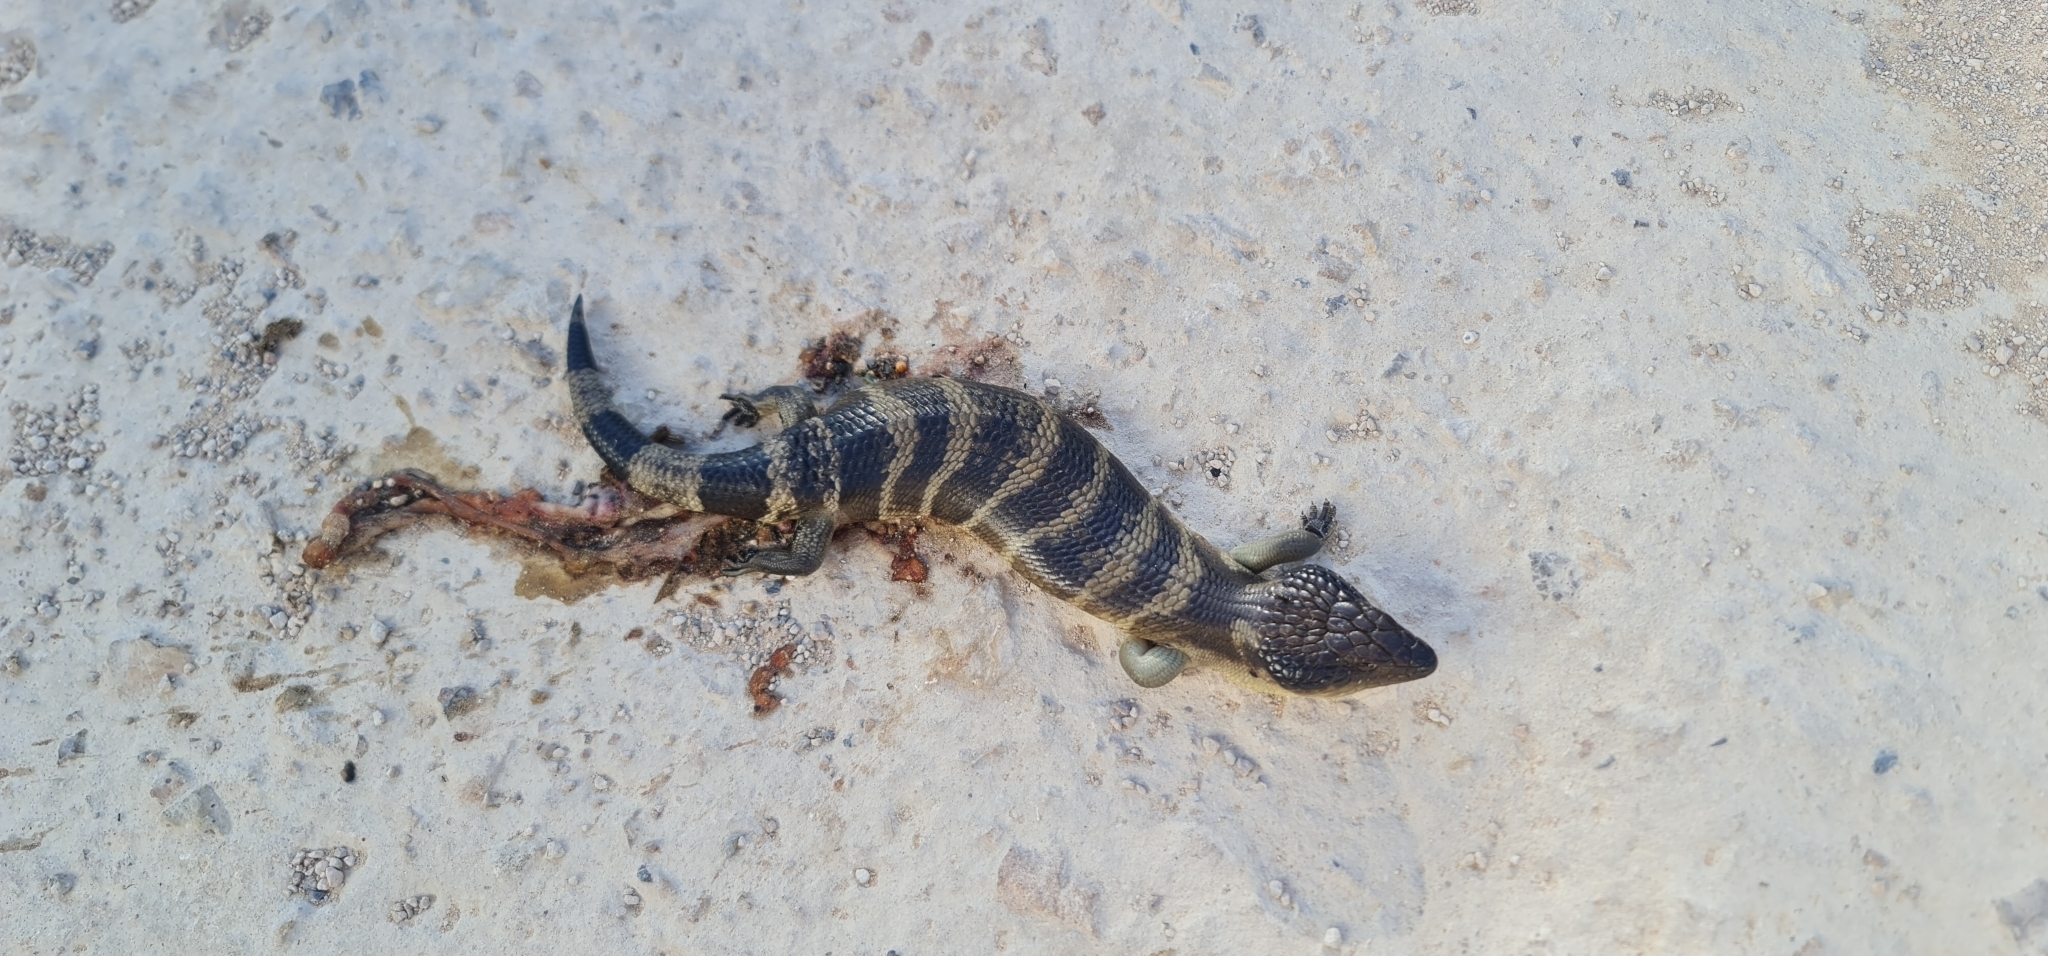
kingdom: Animalia
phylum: Chordata
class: Squamata
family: Scincidae
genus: Tiliqua
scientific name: Tiliqua occipitalis
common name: Western blue-tongued lizard
